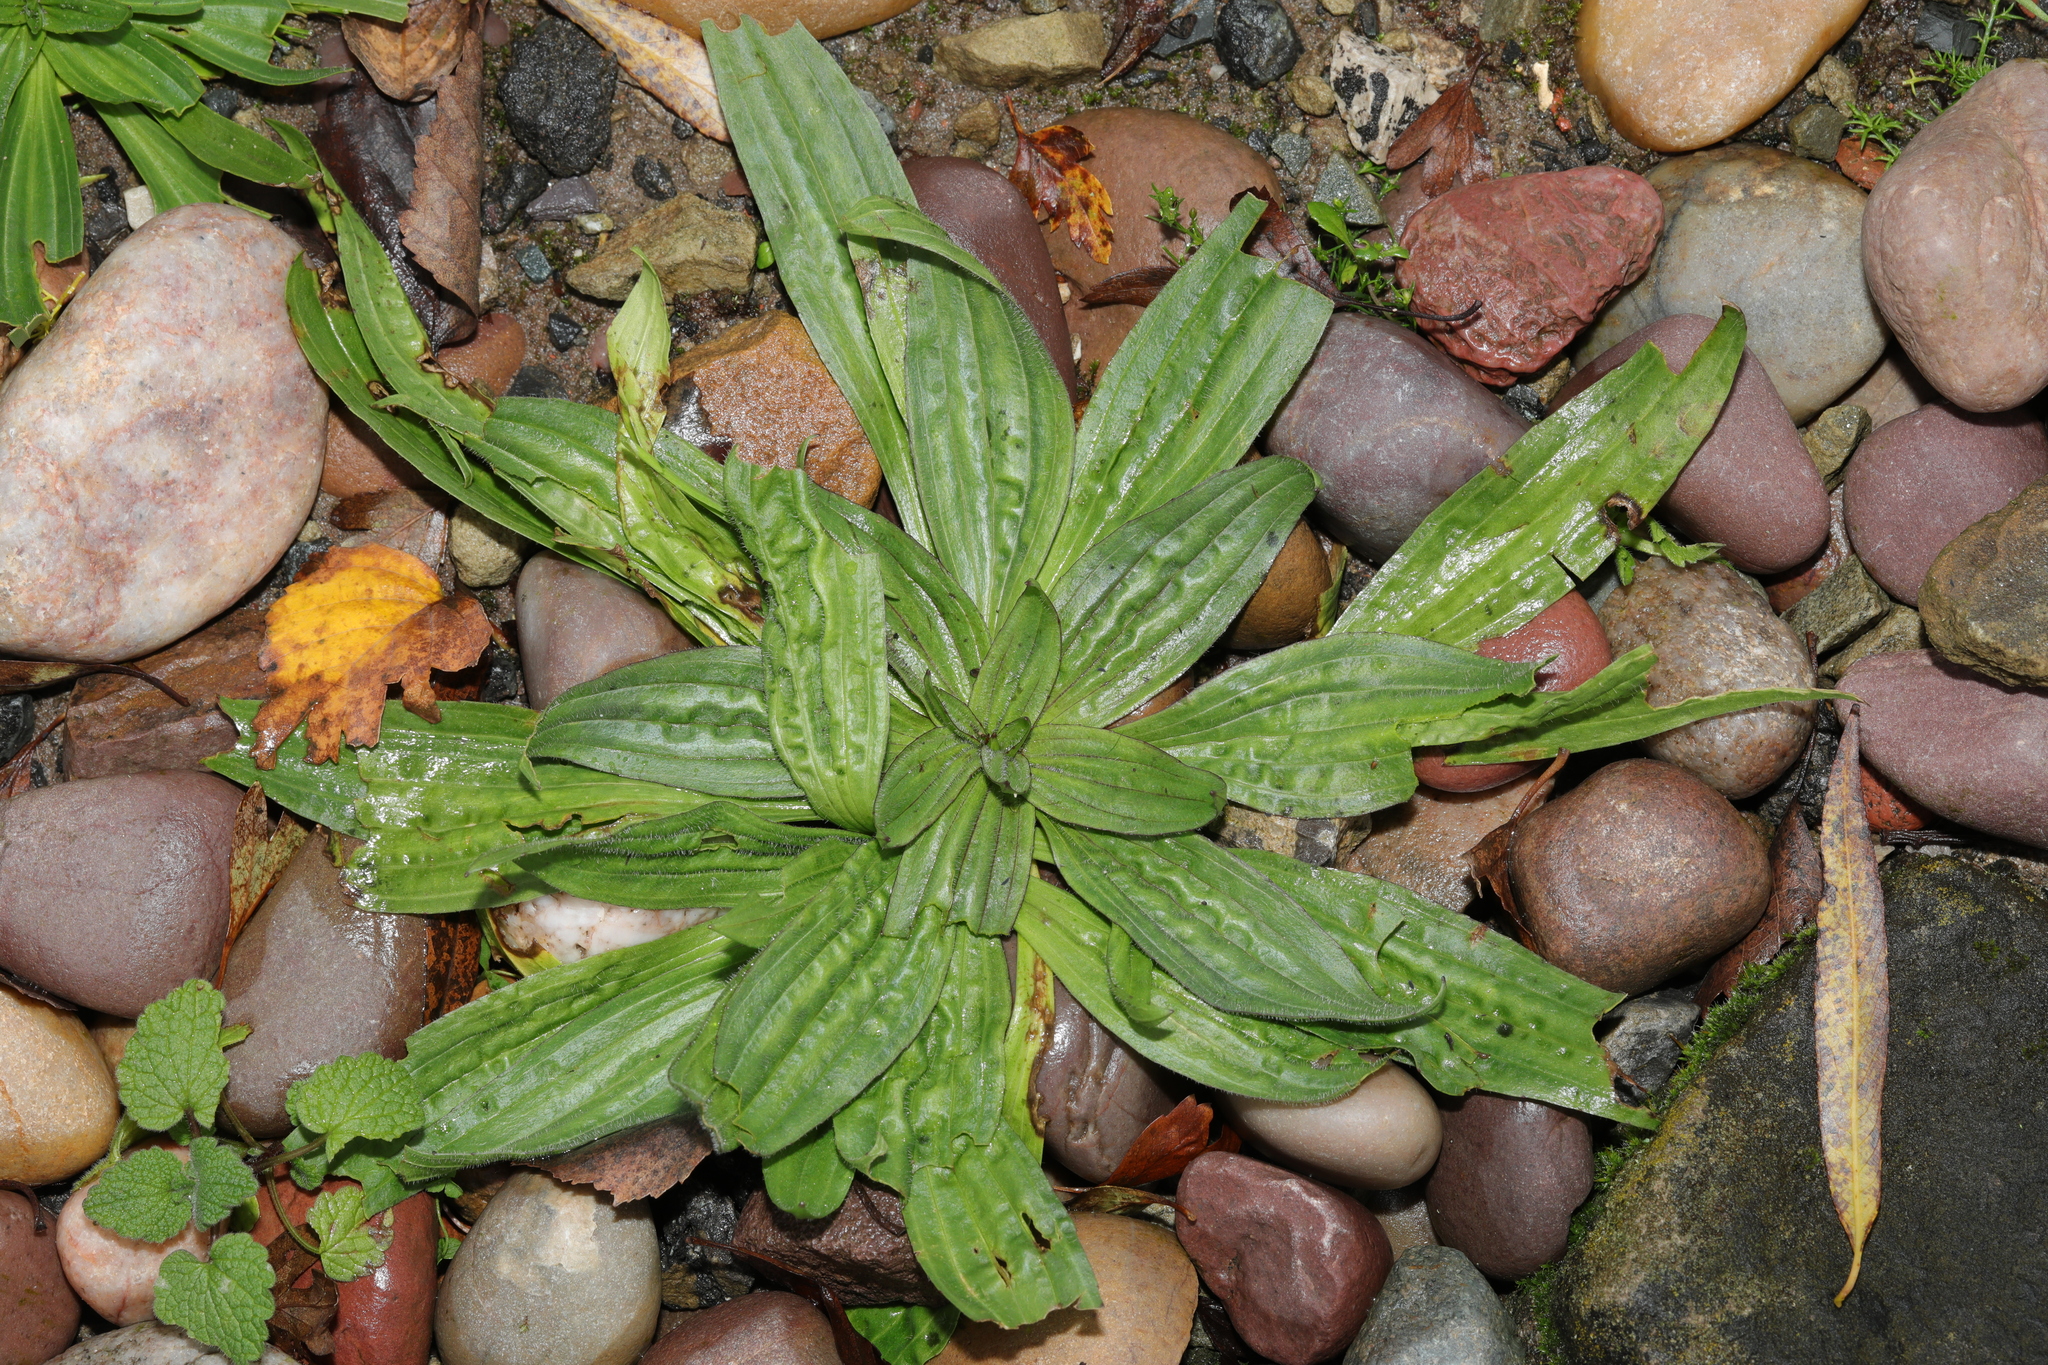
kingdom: Plantae
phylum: Tracheophyta
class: Magnoliopsida
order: Lamiales
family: Plantaginaceae
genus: Plantago
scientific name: Plantago lanceolata
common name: Ribwort plantain
